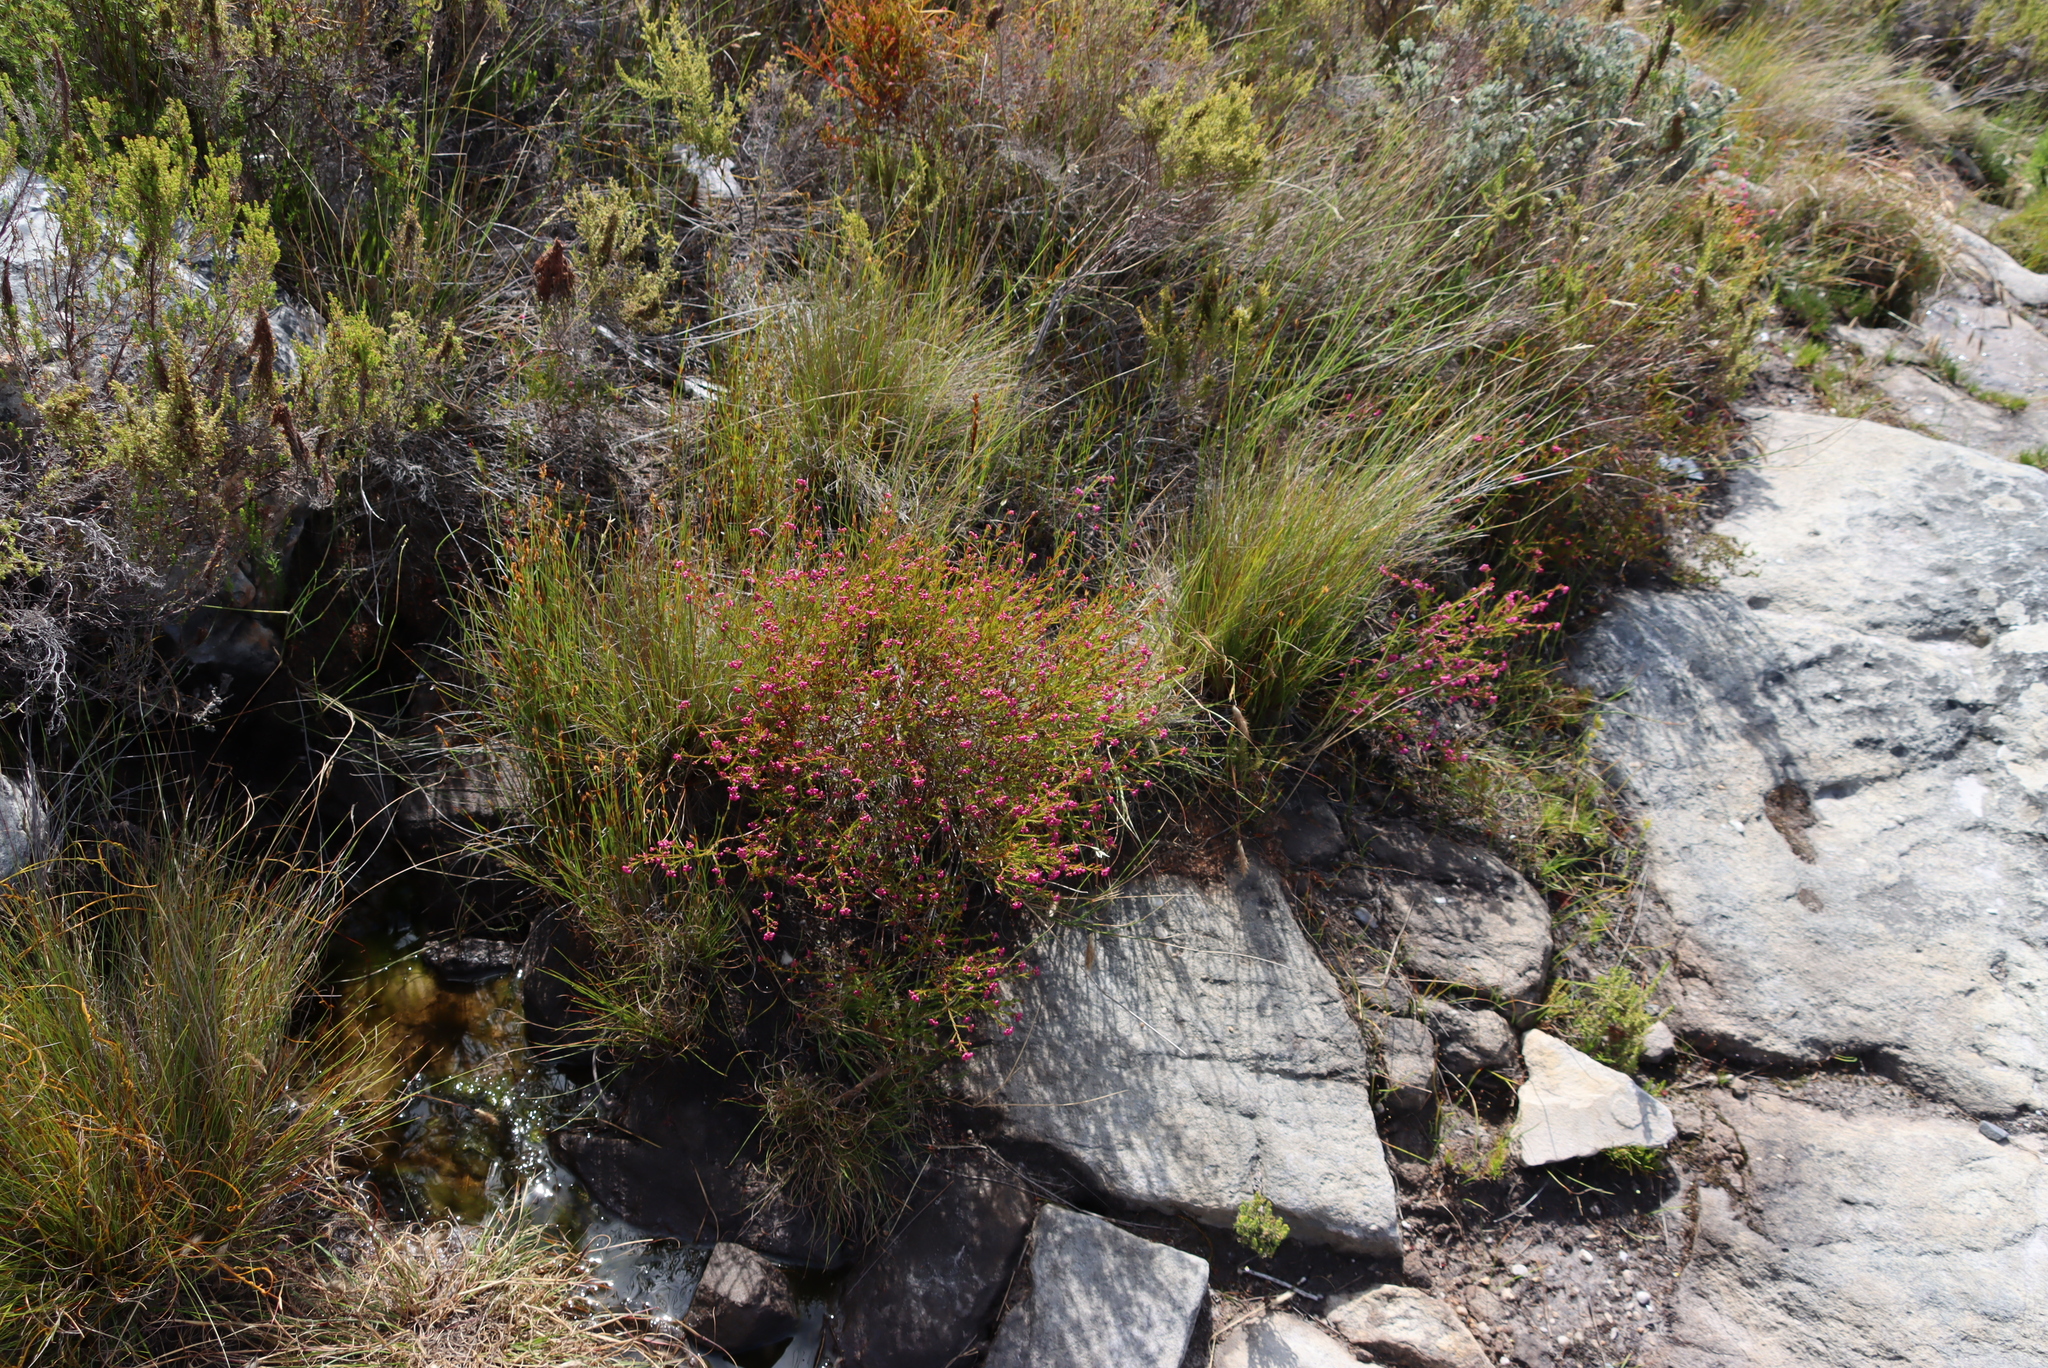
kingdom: Plantae
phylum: Tracheophyta
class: Magnoliopsida
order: Ericales
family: Ericaceae
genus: Erica
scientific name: Erica multumbellifera
